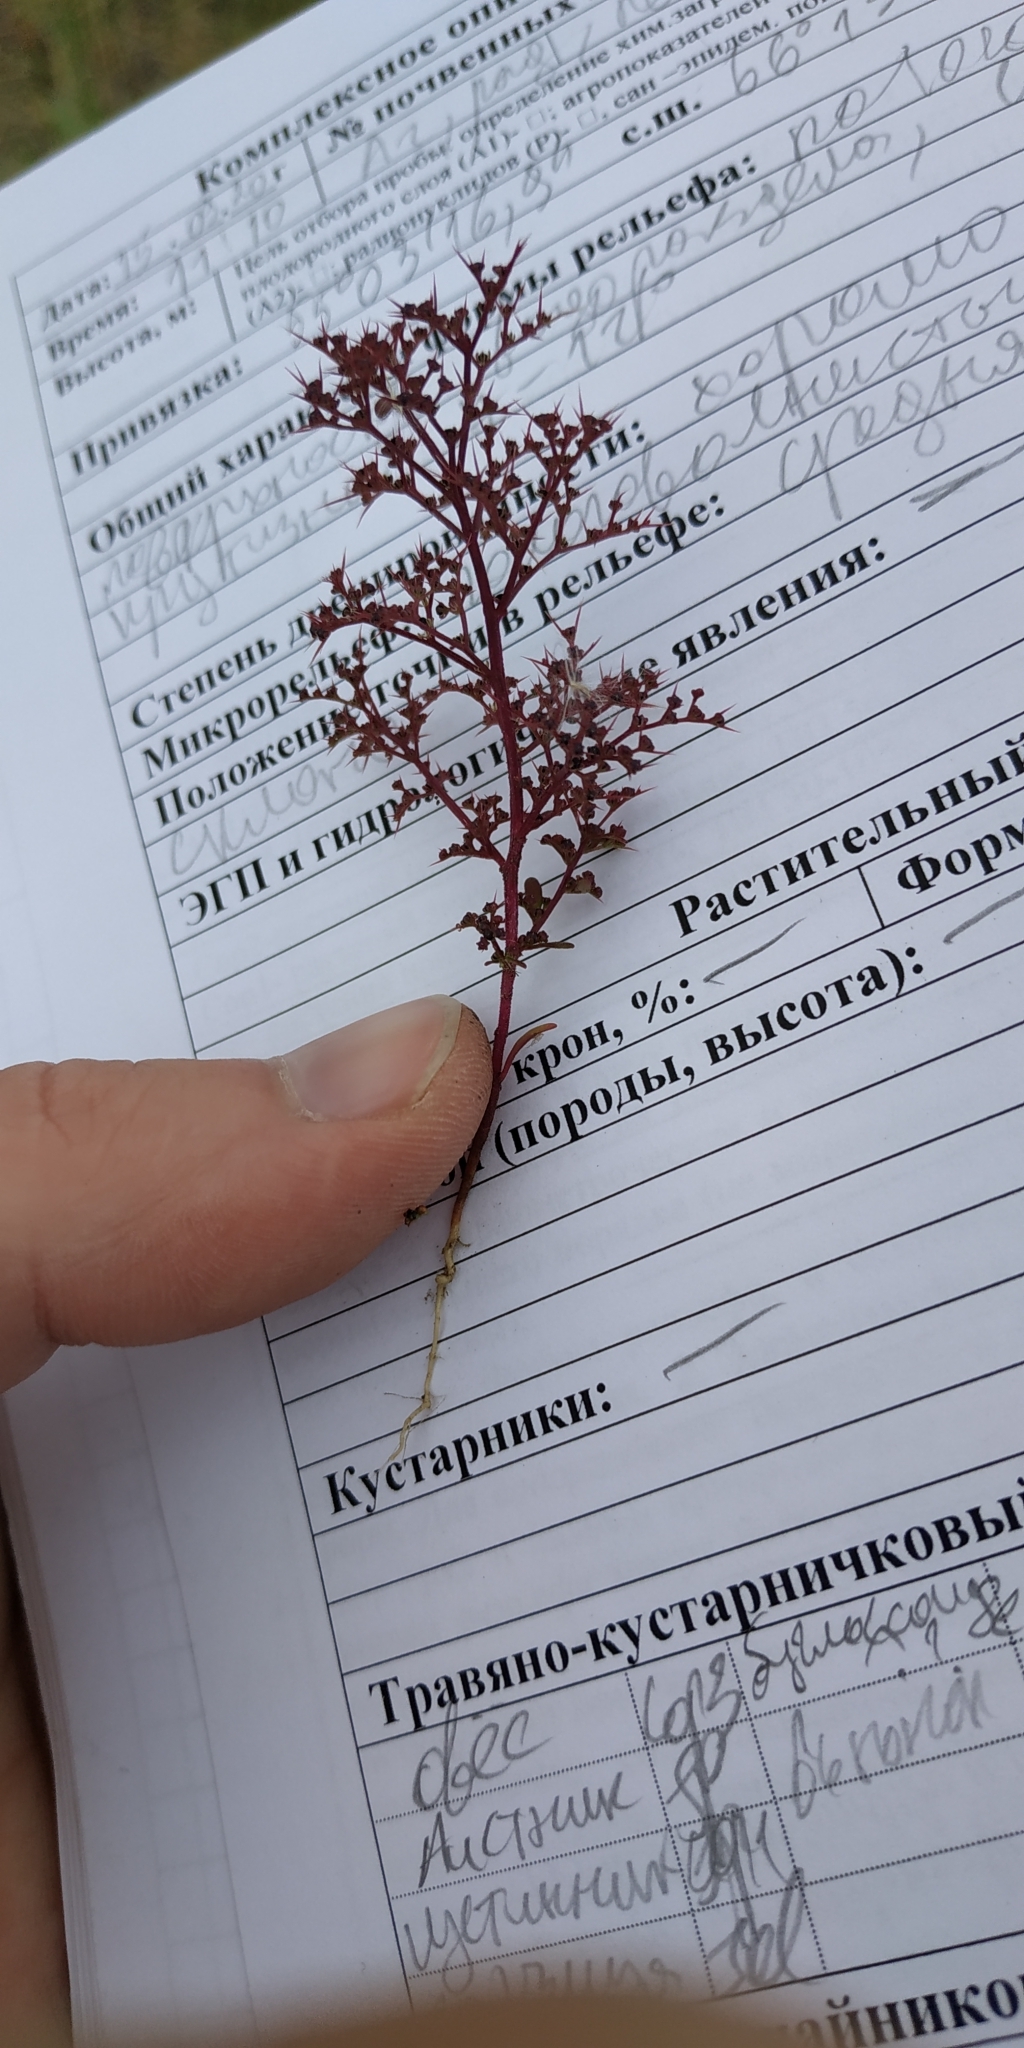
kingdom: Plantae
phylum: Tracheophyta
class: Magnoliopsida
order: Caryophyllales
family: Amaranthaceae
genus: Teloxys
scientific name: Teloxys aristata
